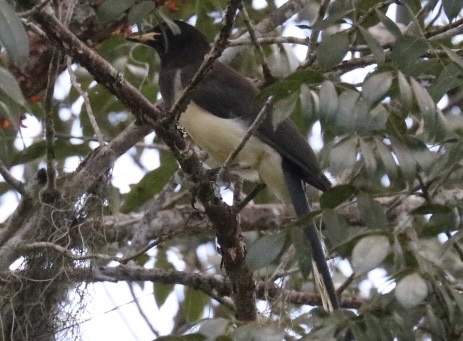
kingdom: Animalia
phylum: Chordata
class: Aves
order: Passeriformes
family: Corvidae
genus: Psilorhinus
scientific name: Psilorhinus morio
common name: Brown jay
